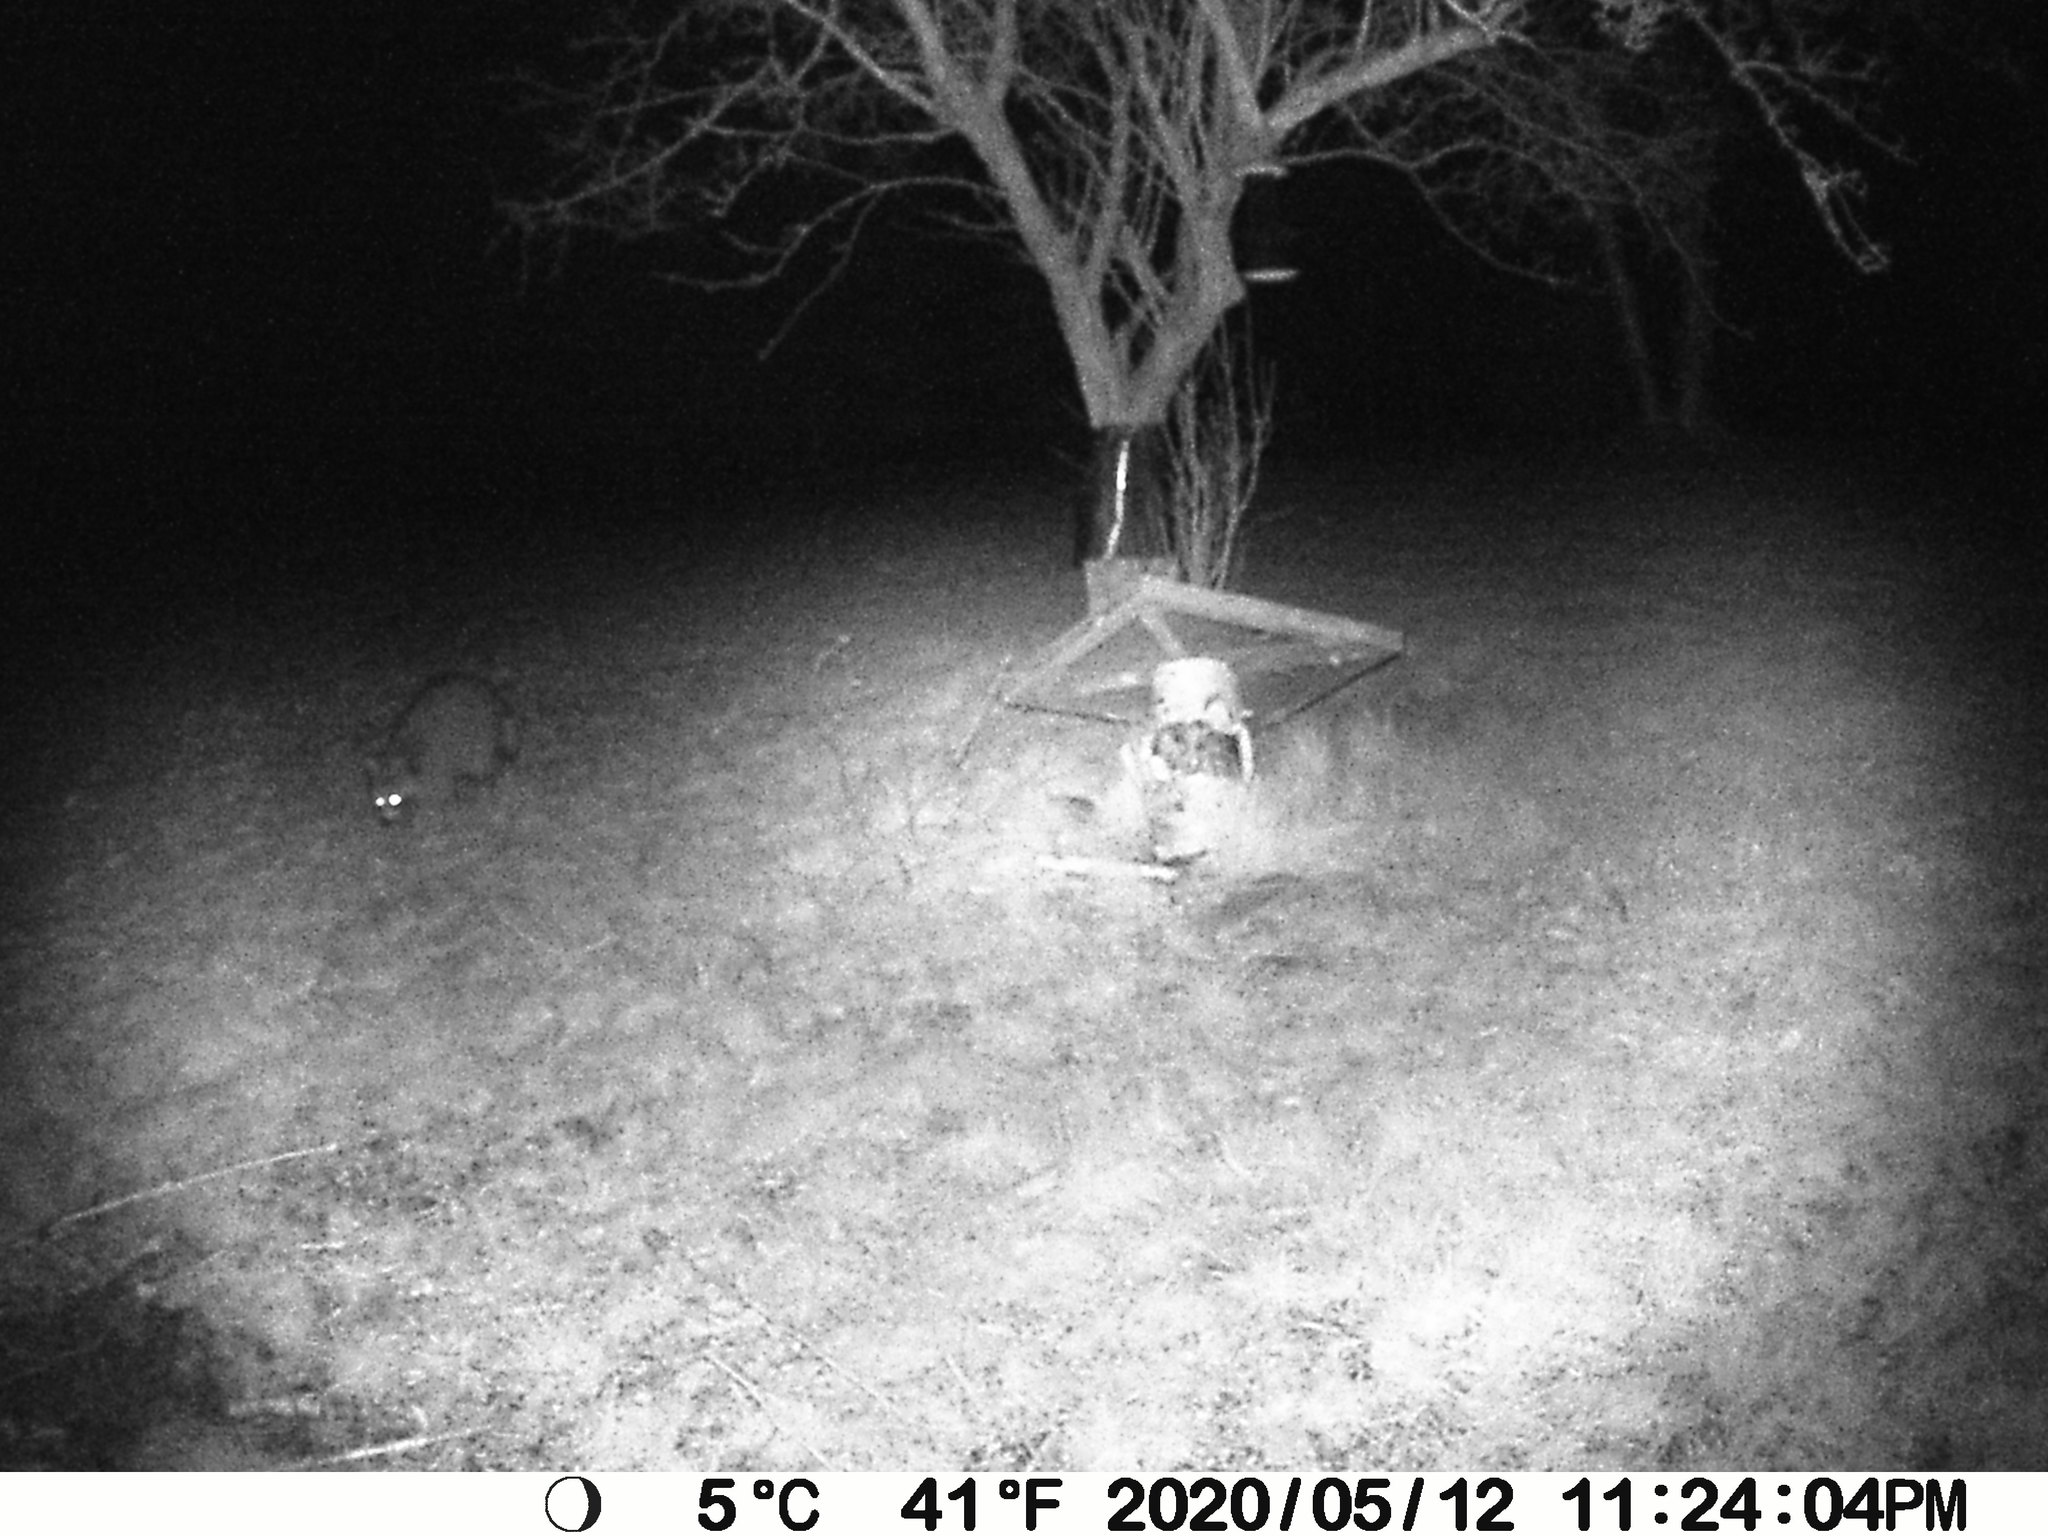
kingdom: Animalia
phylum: Chordata
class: Mammalia
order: Carnivora
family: Procyonidae
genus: Procyon
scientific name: Procyon lotor
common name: Raccoon
